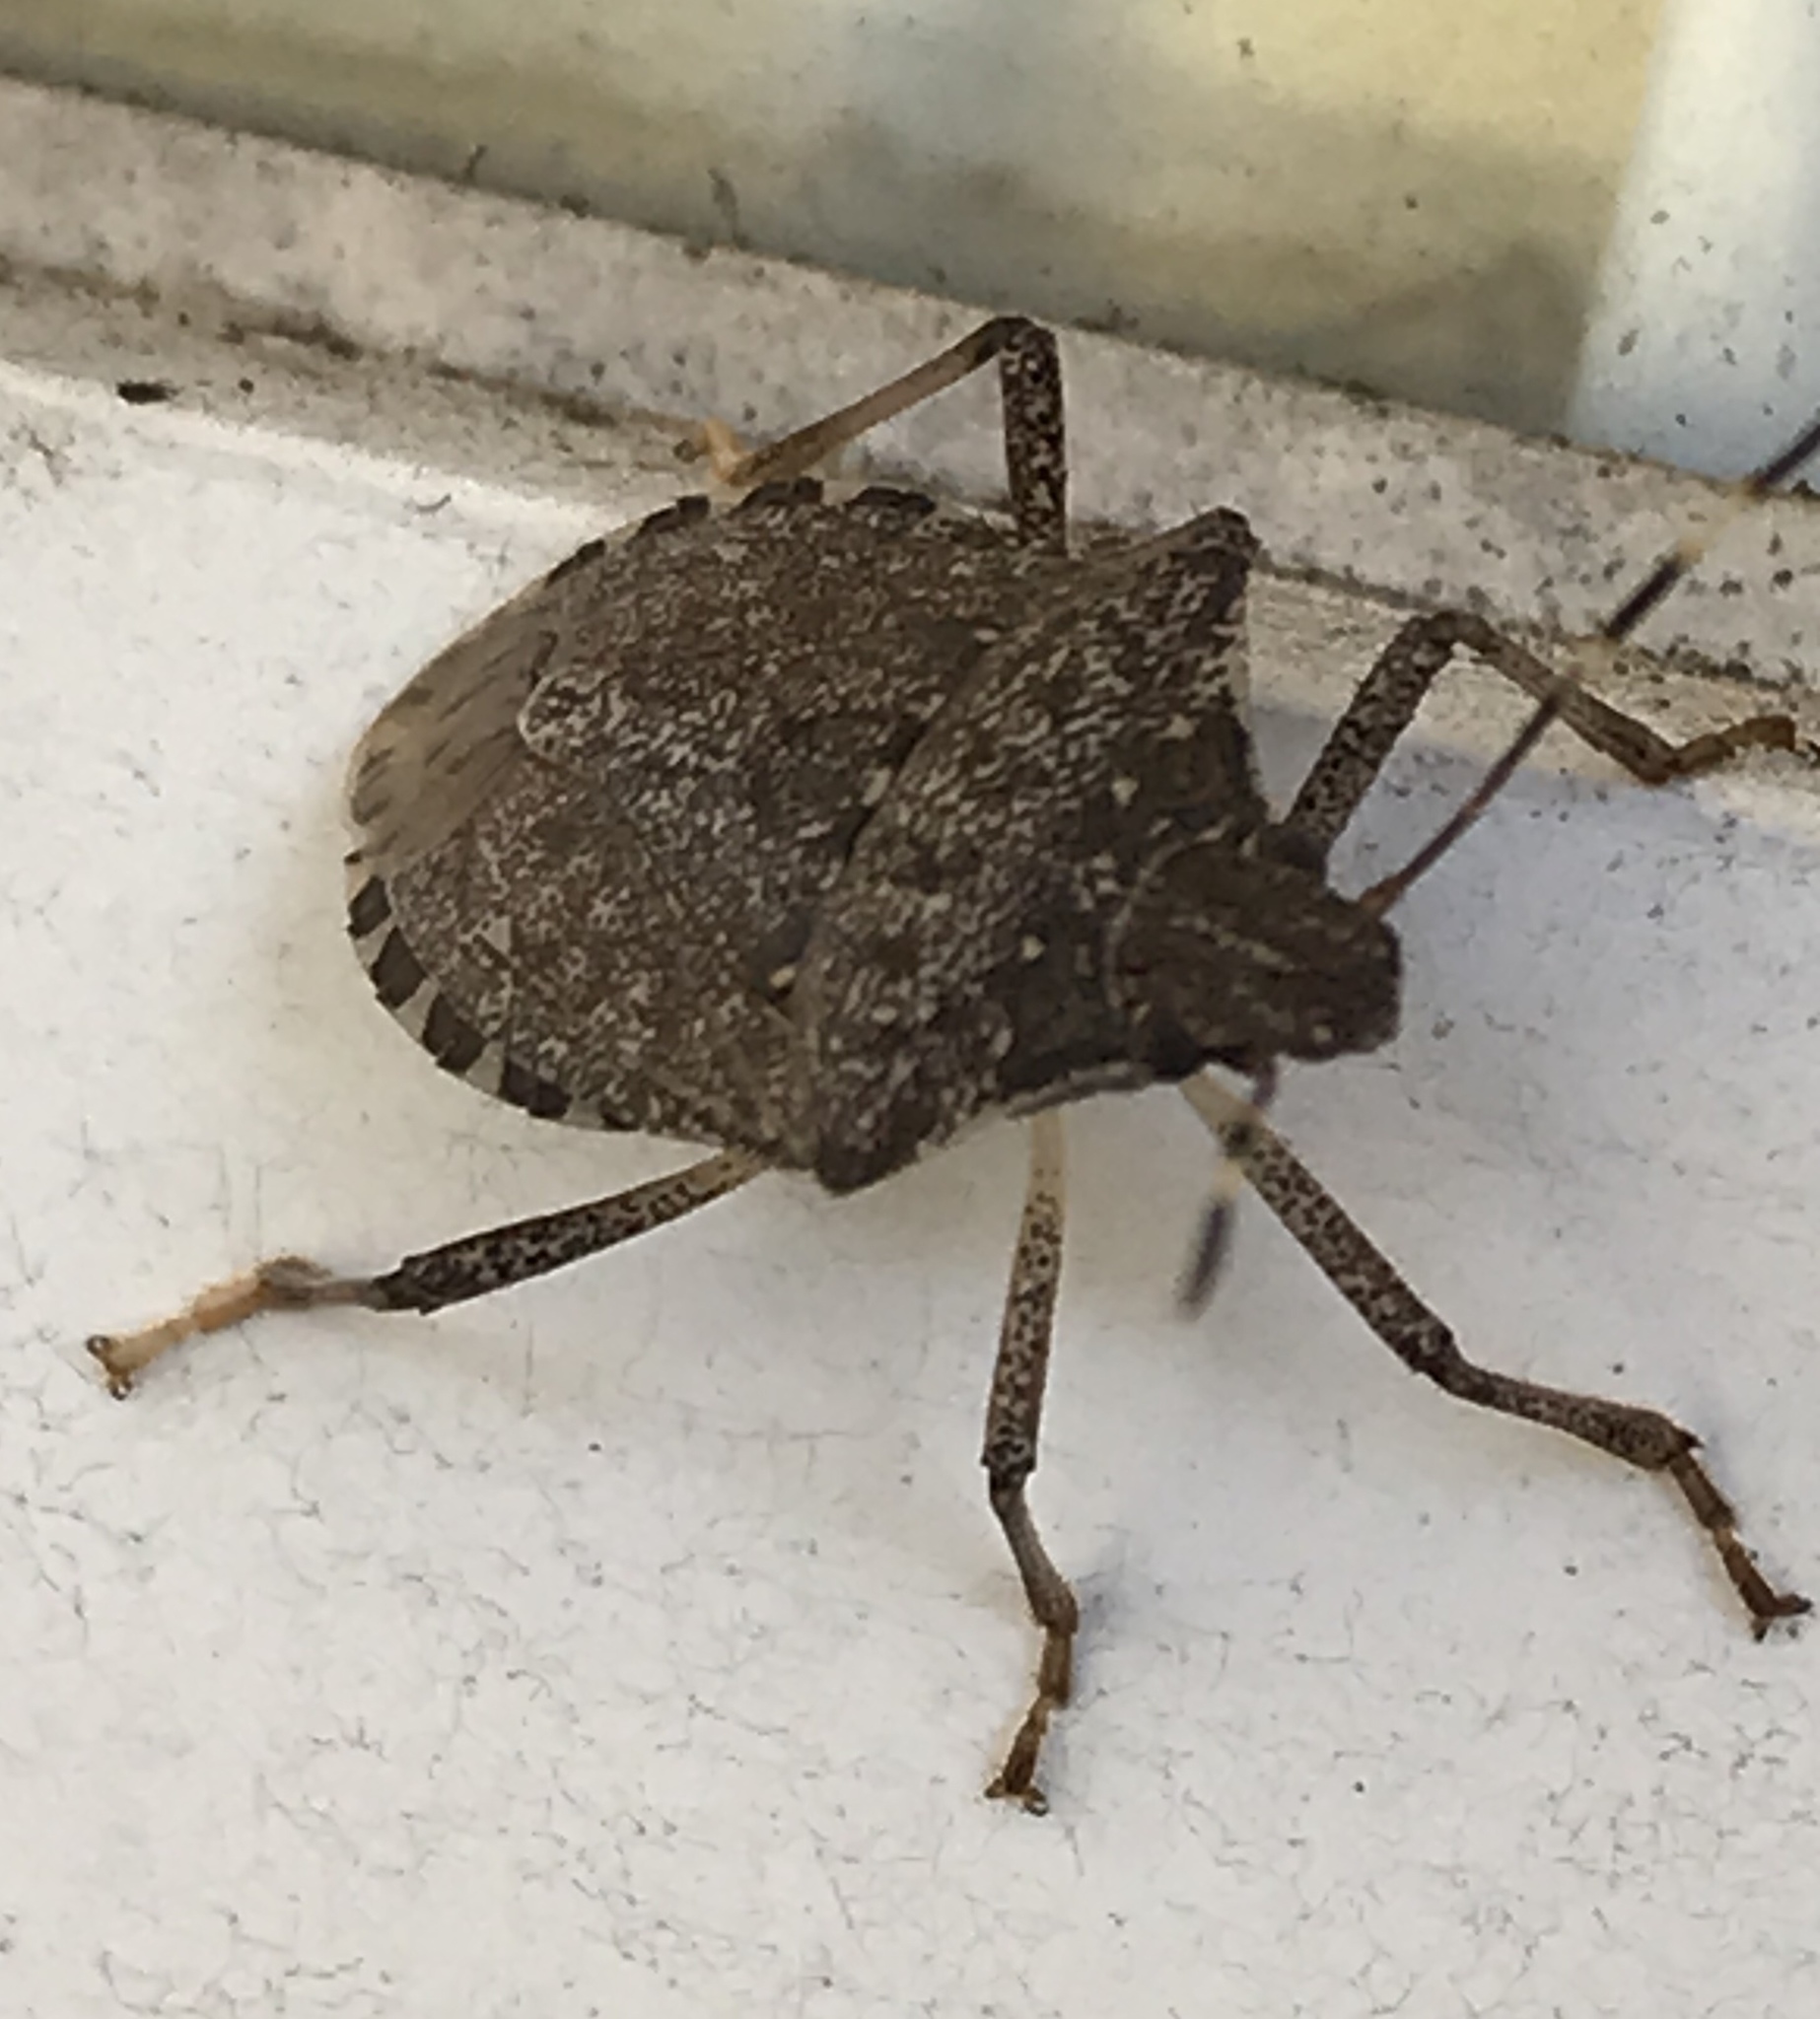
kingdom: Animalia
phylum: Arthropoda
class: Insecta
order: Hemiptera
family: Pentatomidae
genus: Halyomorpha
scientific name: Halyomorpha halys
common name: Brown marmorated stink bug
